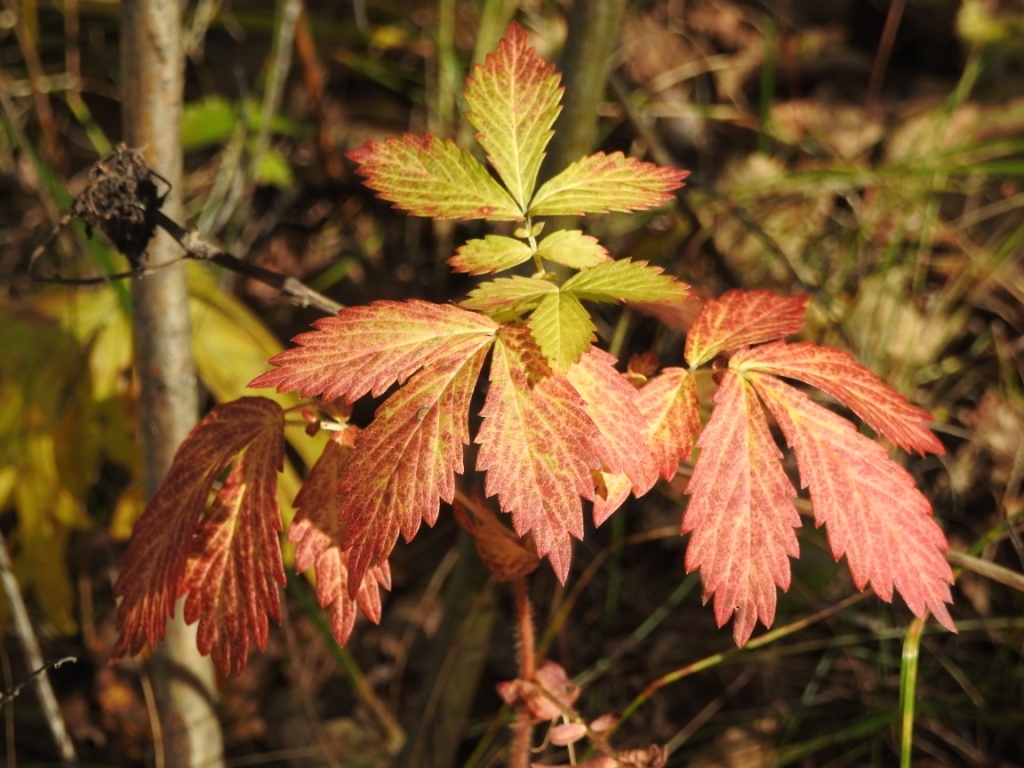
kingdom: Plantae
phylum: Tracheophyta
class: Magnoliopsida
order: Rosales
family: Rosaceae
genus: Agrimonia
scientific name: Agrimonia pilosa
